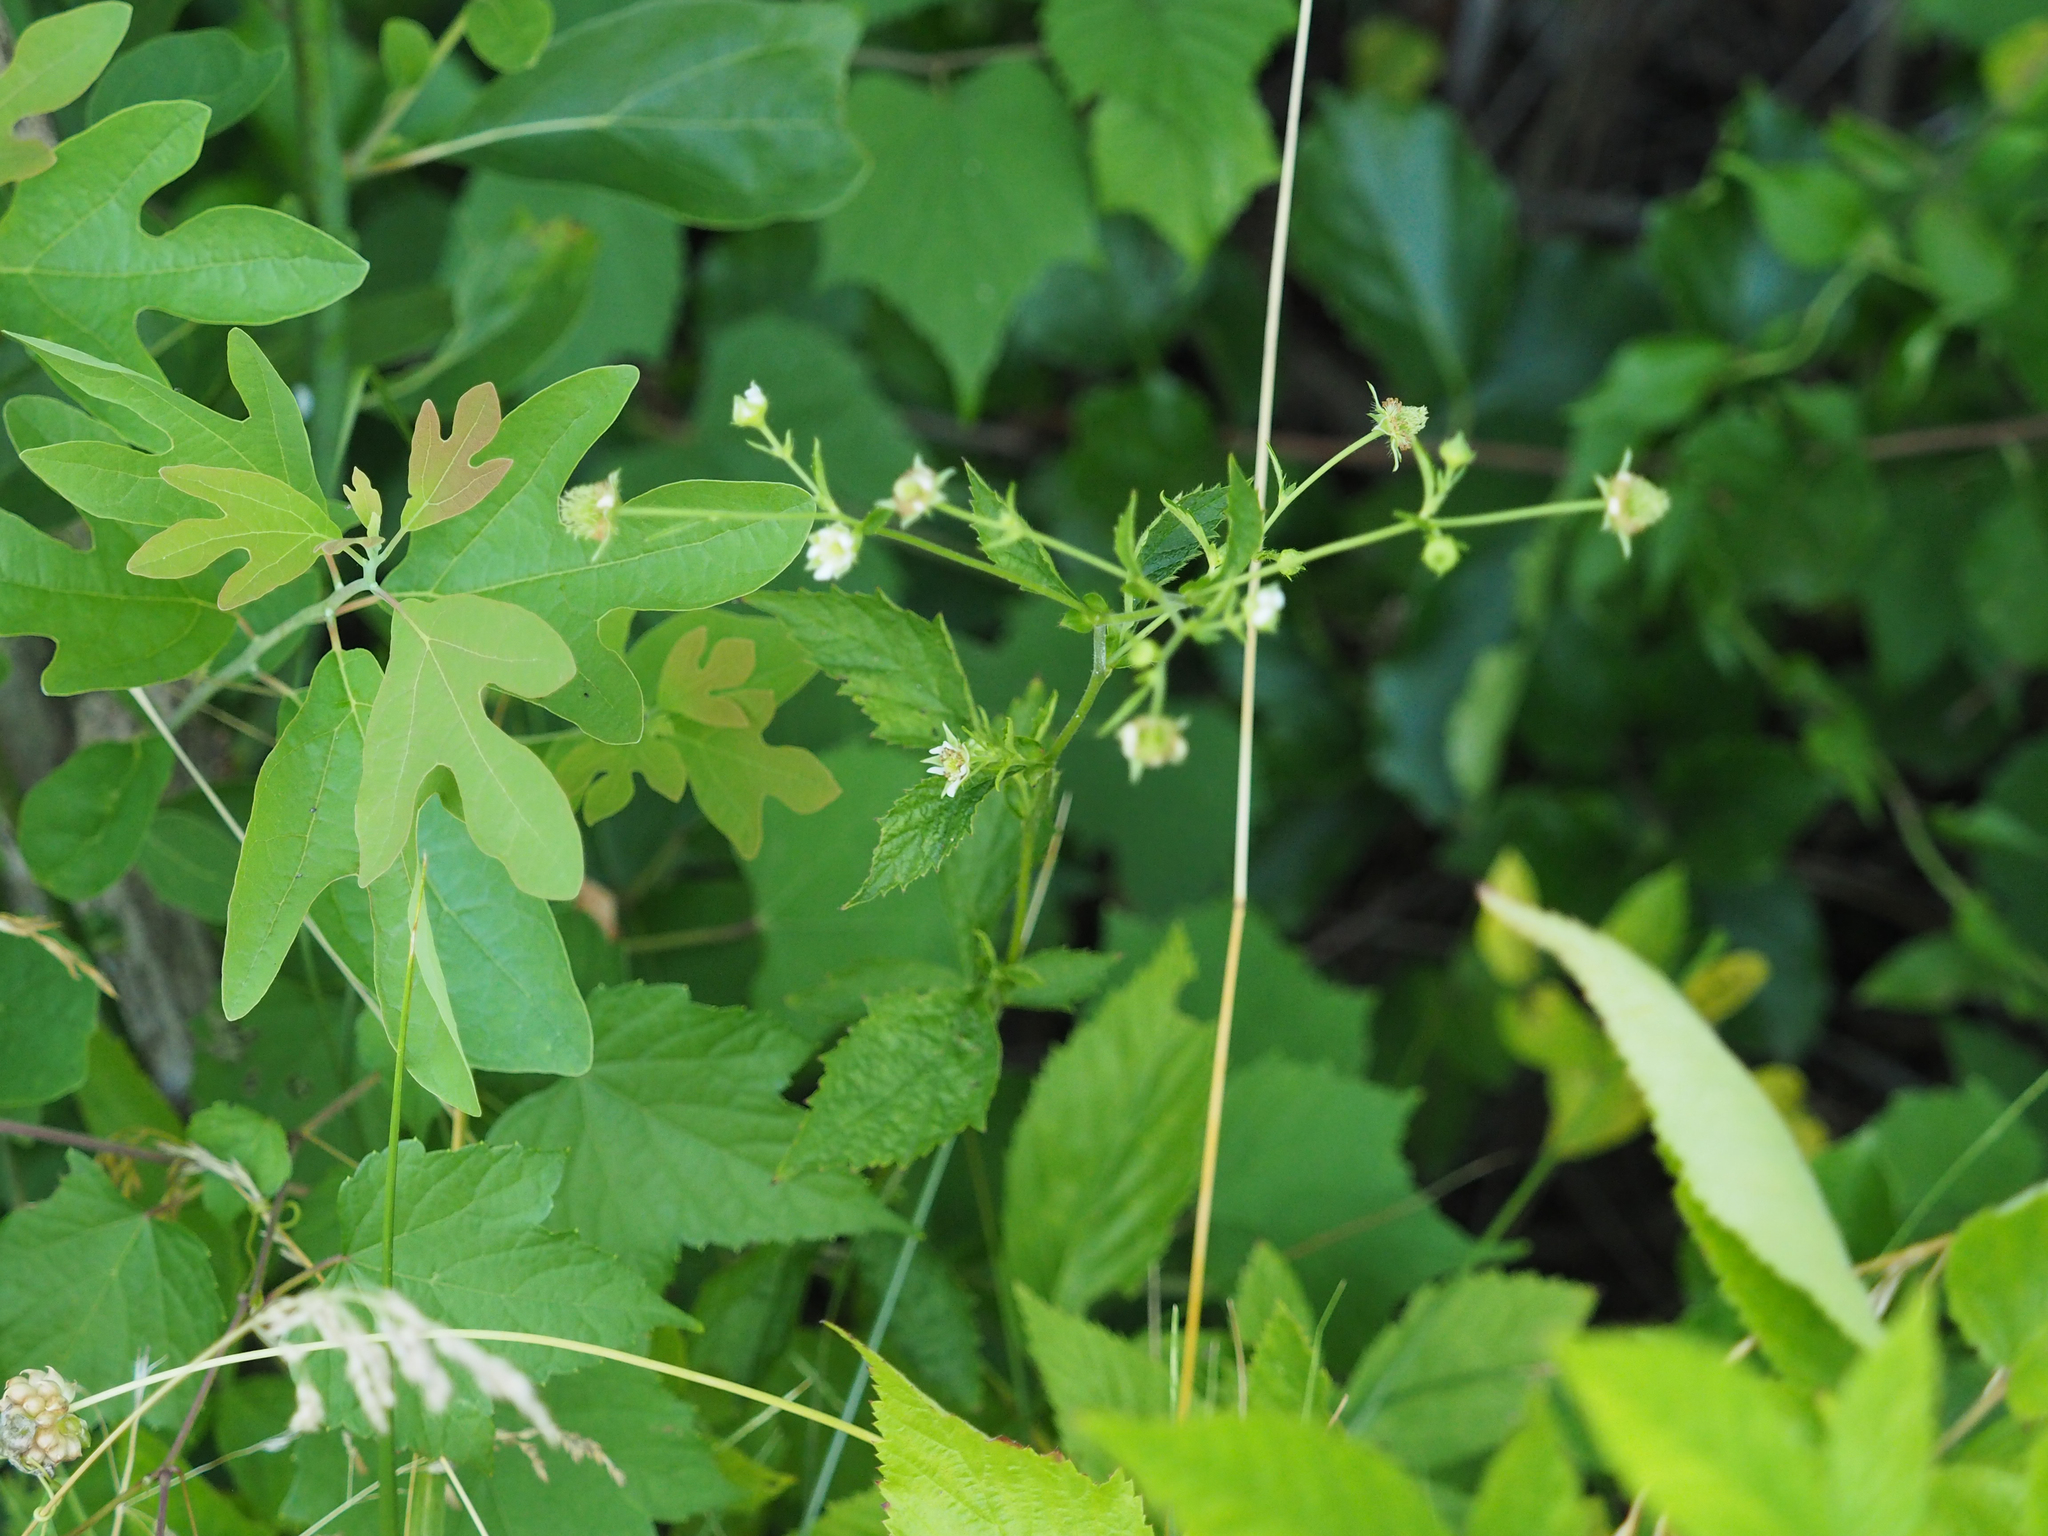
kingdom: Plantae
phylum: Tracheophyta
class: Magnoliopsida
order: Rosales
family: Rosaceae
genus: Geum
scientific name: Geum canadense
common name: White avens
